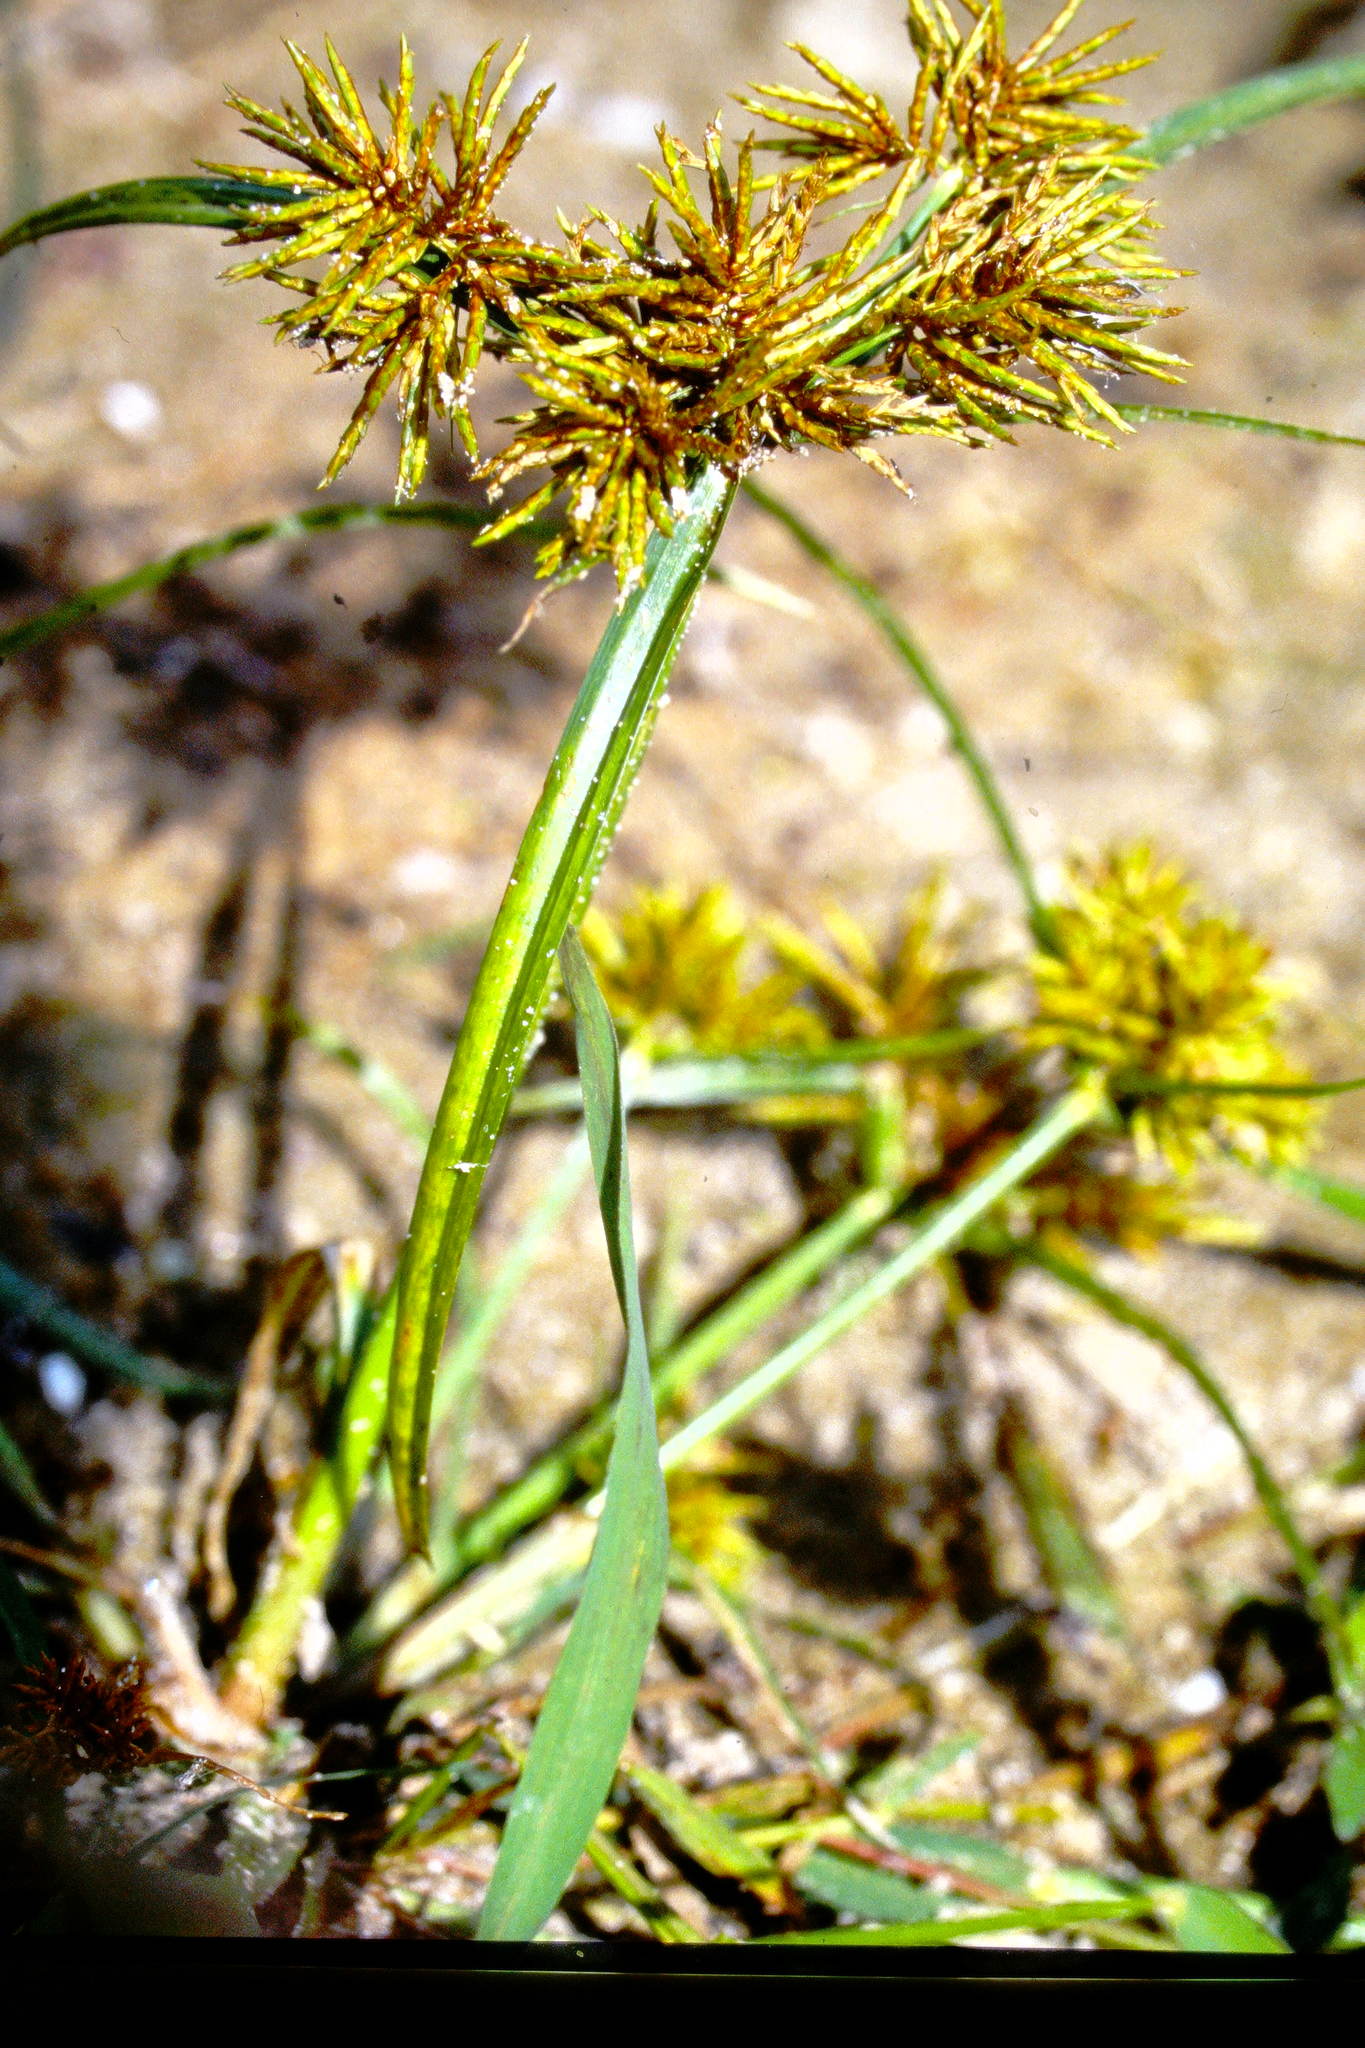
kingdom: Plantae
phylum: Tracheophyta
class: Liliopsida
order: Poales
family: Cyperaceae
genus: Cyperus
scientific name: Cyperus odoratus
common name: Fragrant flatsedge
